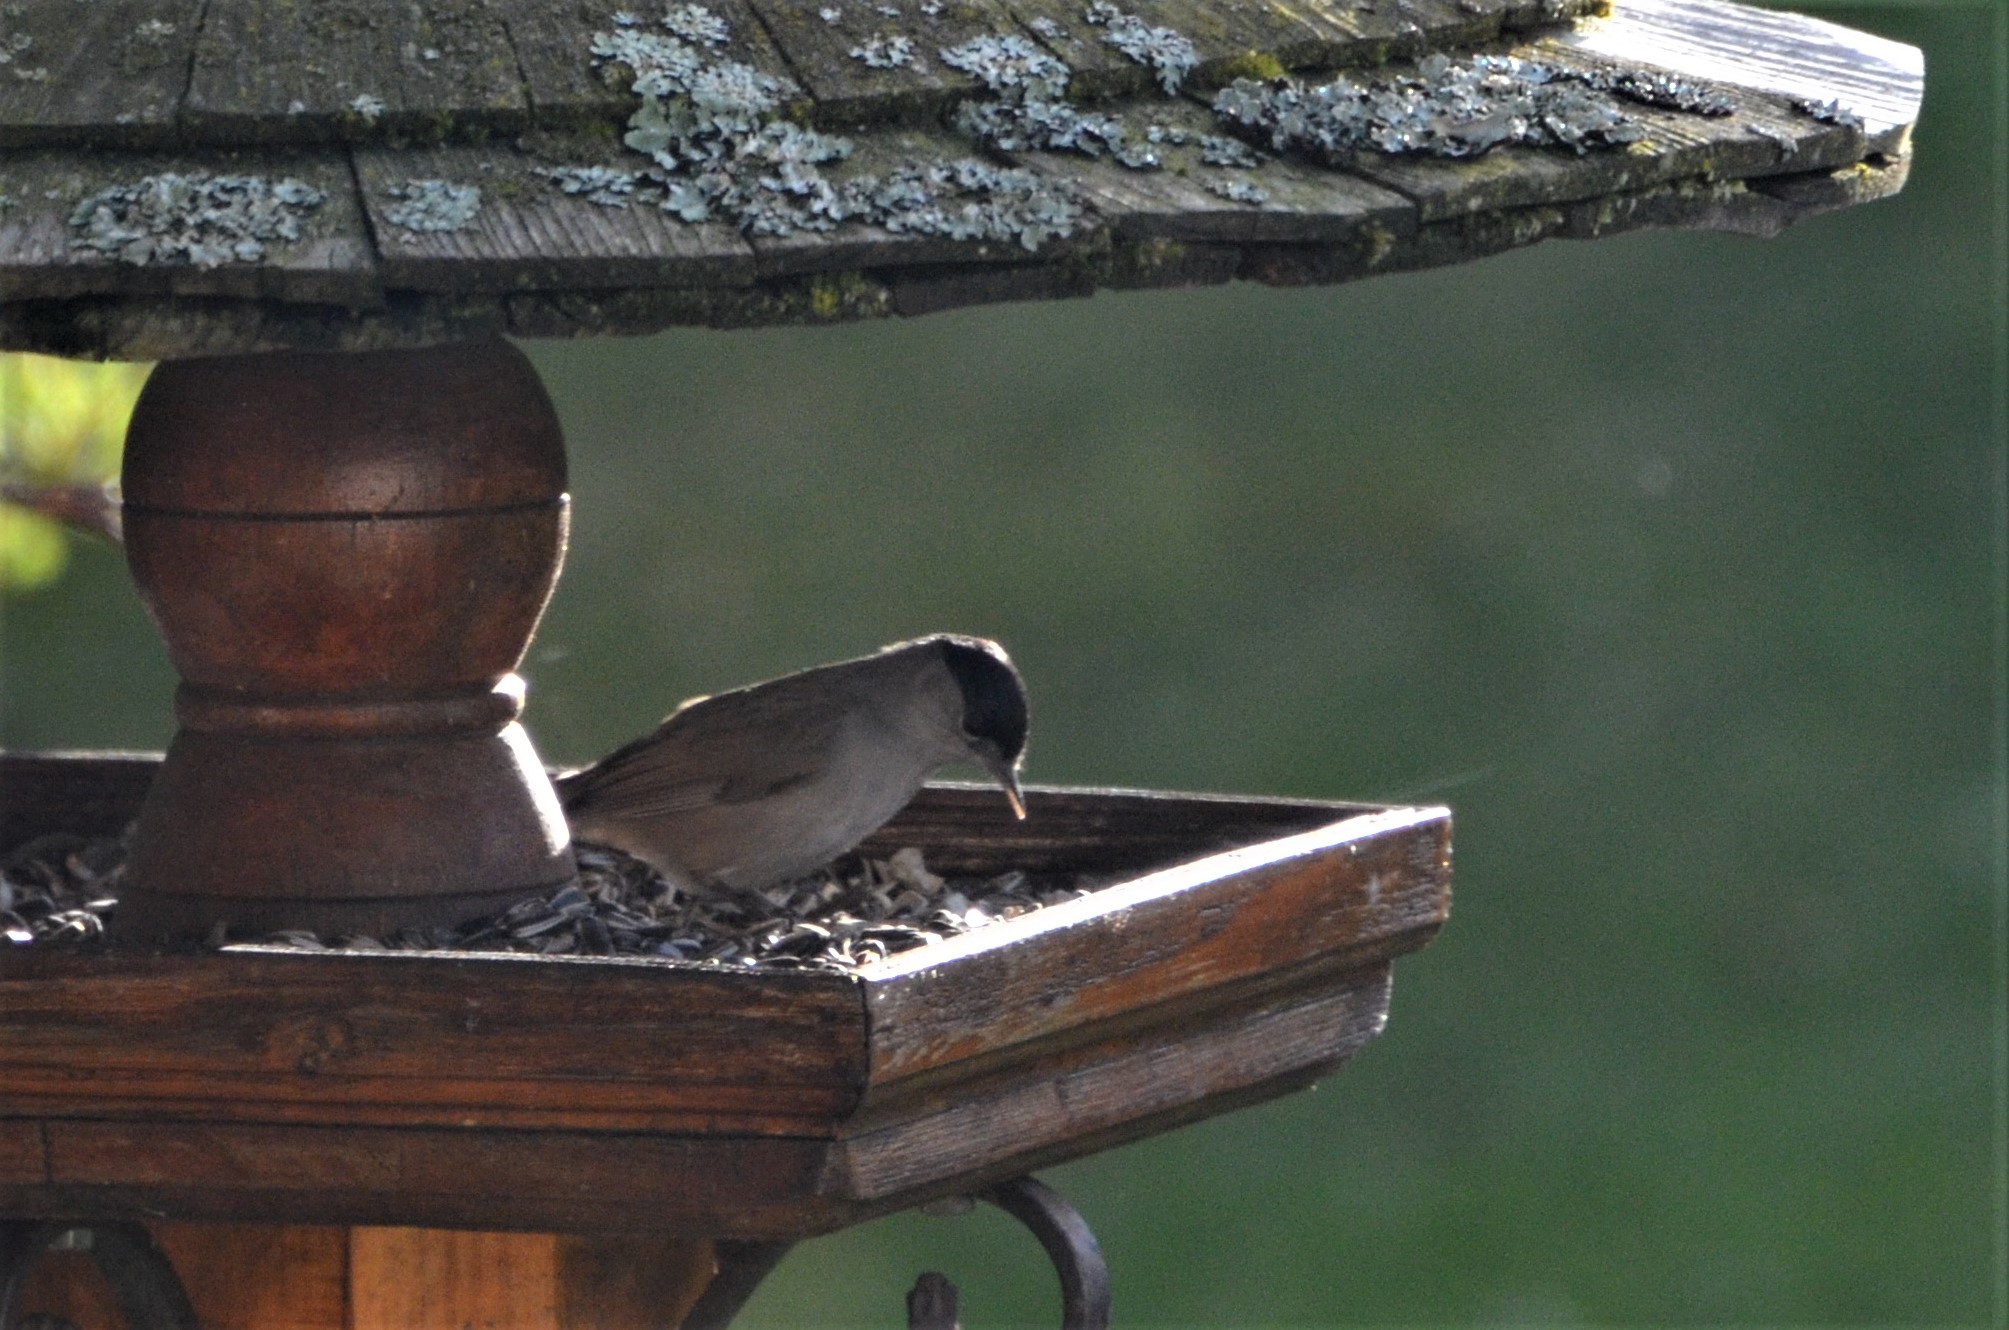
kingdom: Animalia
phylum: Chordata
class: Aves
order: Passeriformes
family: Sylviidae
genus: Sylvia
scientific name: Sylvia atricapilla
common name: Eurasian blackcap
